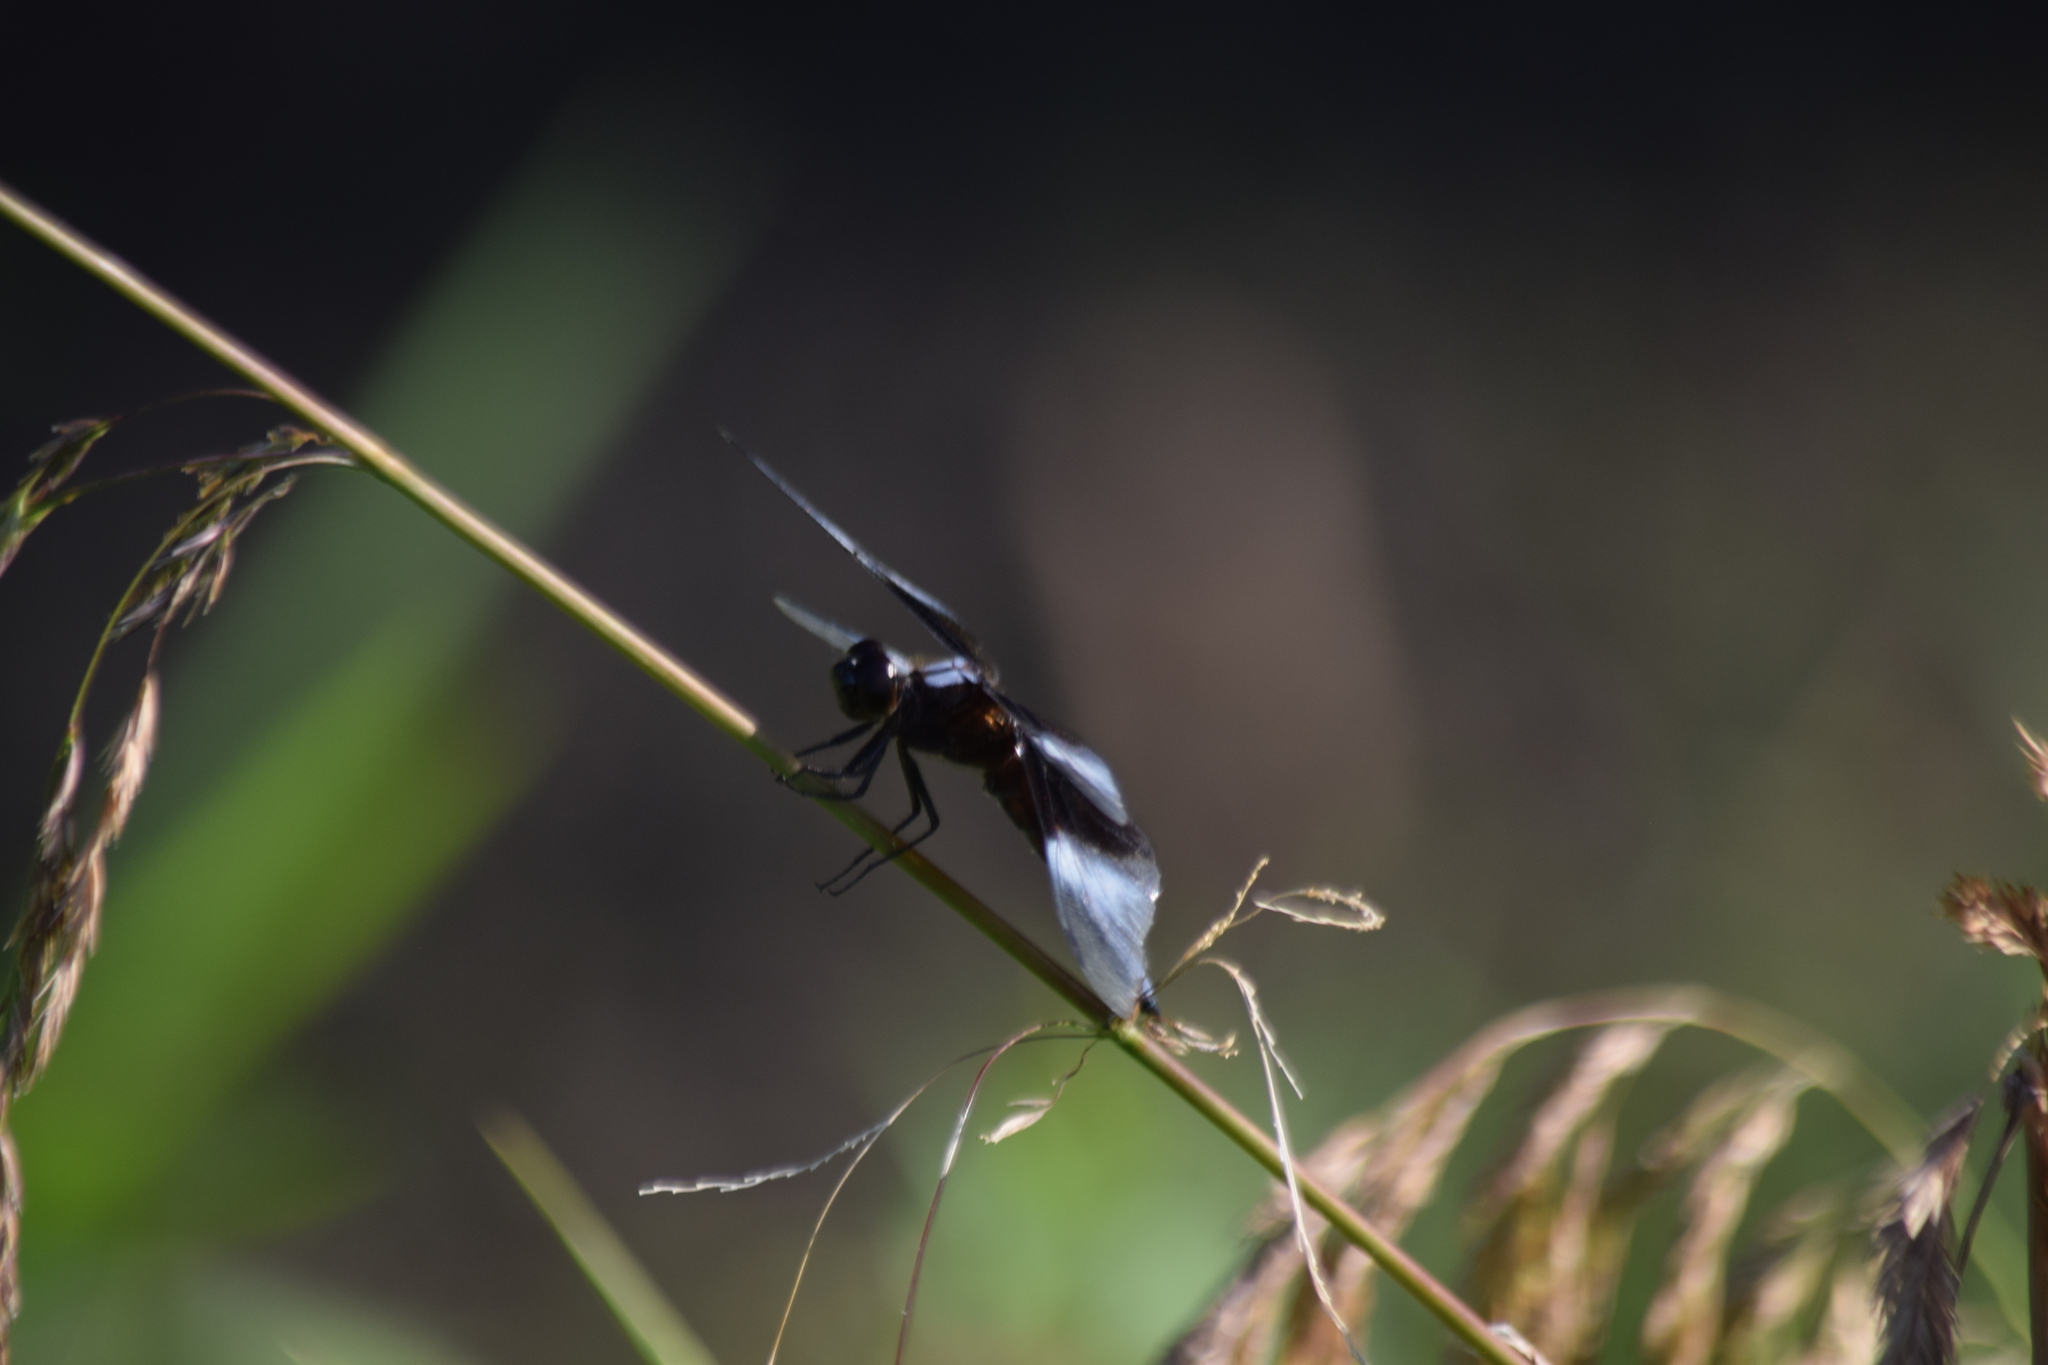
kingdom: Animalia
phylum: Arthropoda
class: Insecta
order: Odonata
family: Libellulidae
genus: Libellula
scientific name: Libellula luctuosa
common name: Widow skimmer
